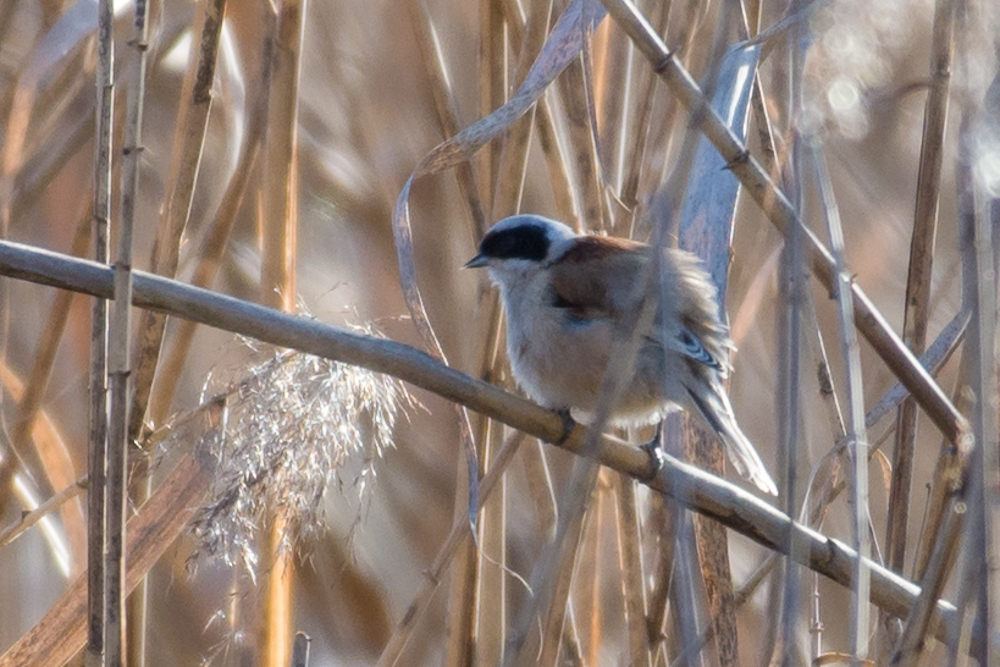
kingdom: Animalia
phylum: Chordata
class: Aves
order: Passeriformes
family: Remizidae
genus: Remiz
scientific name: Remiz pendulinus
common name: Eurasian penduline tit
